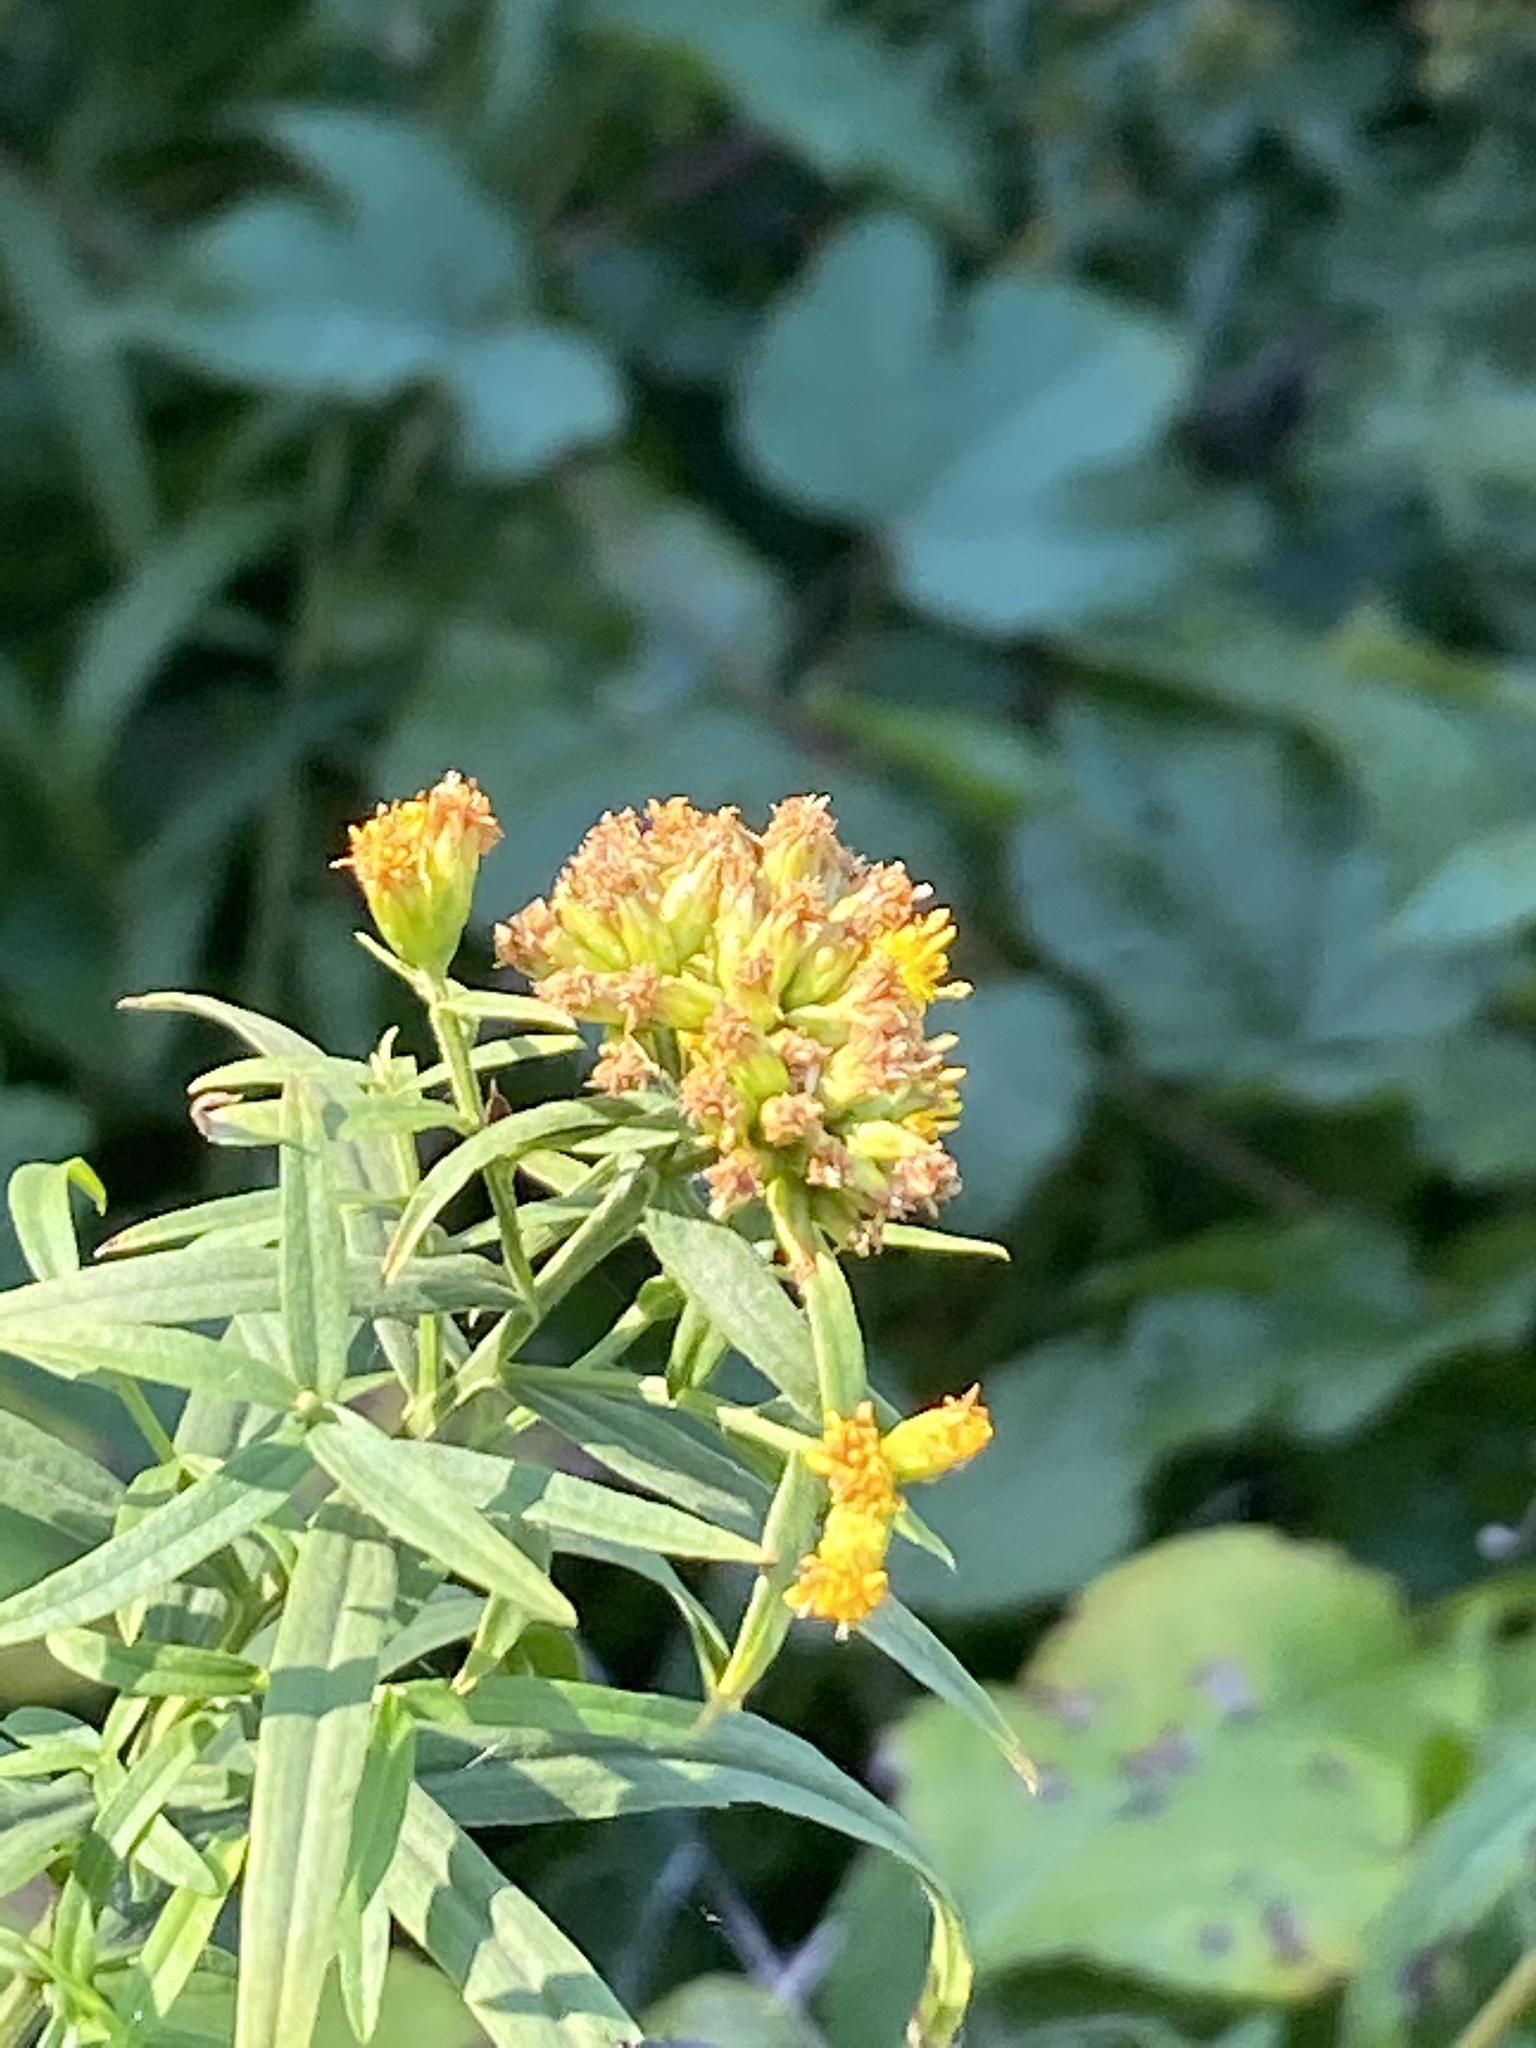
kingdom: Plantae
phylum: Tracheophyta
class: Magnoliopsida
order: Asterales
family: Asteraceae
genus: Euthamia
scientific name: Euthamia graminifolia
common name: Common goldentop
